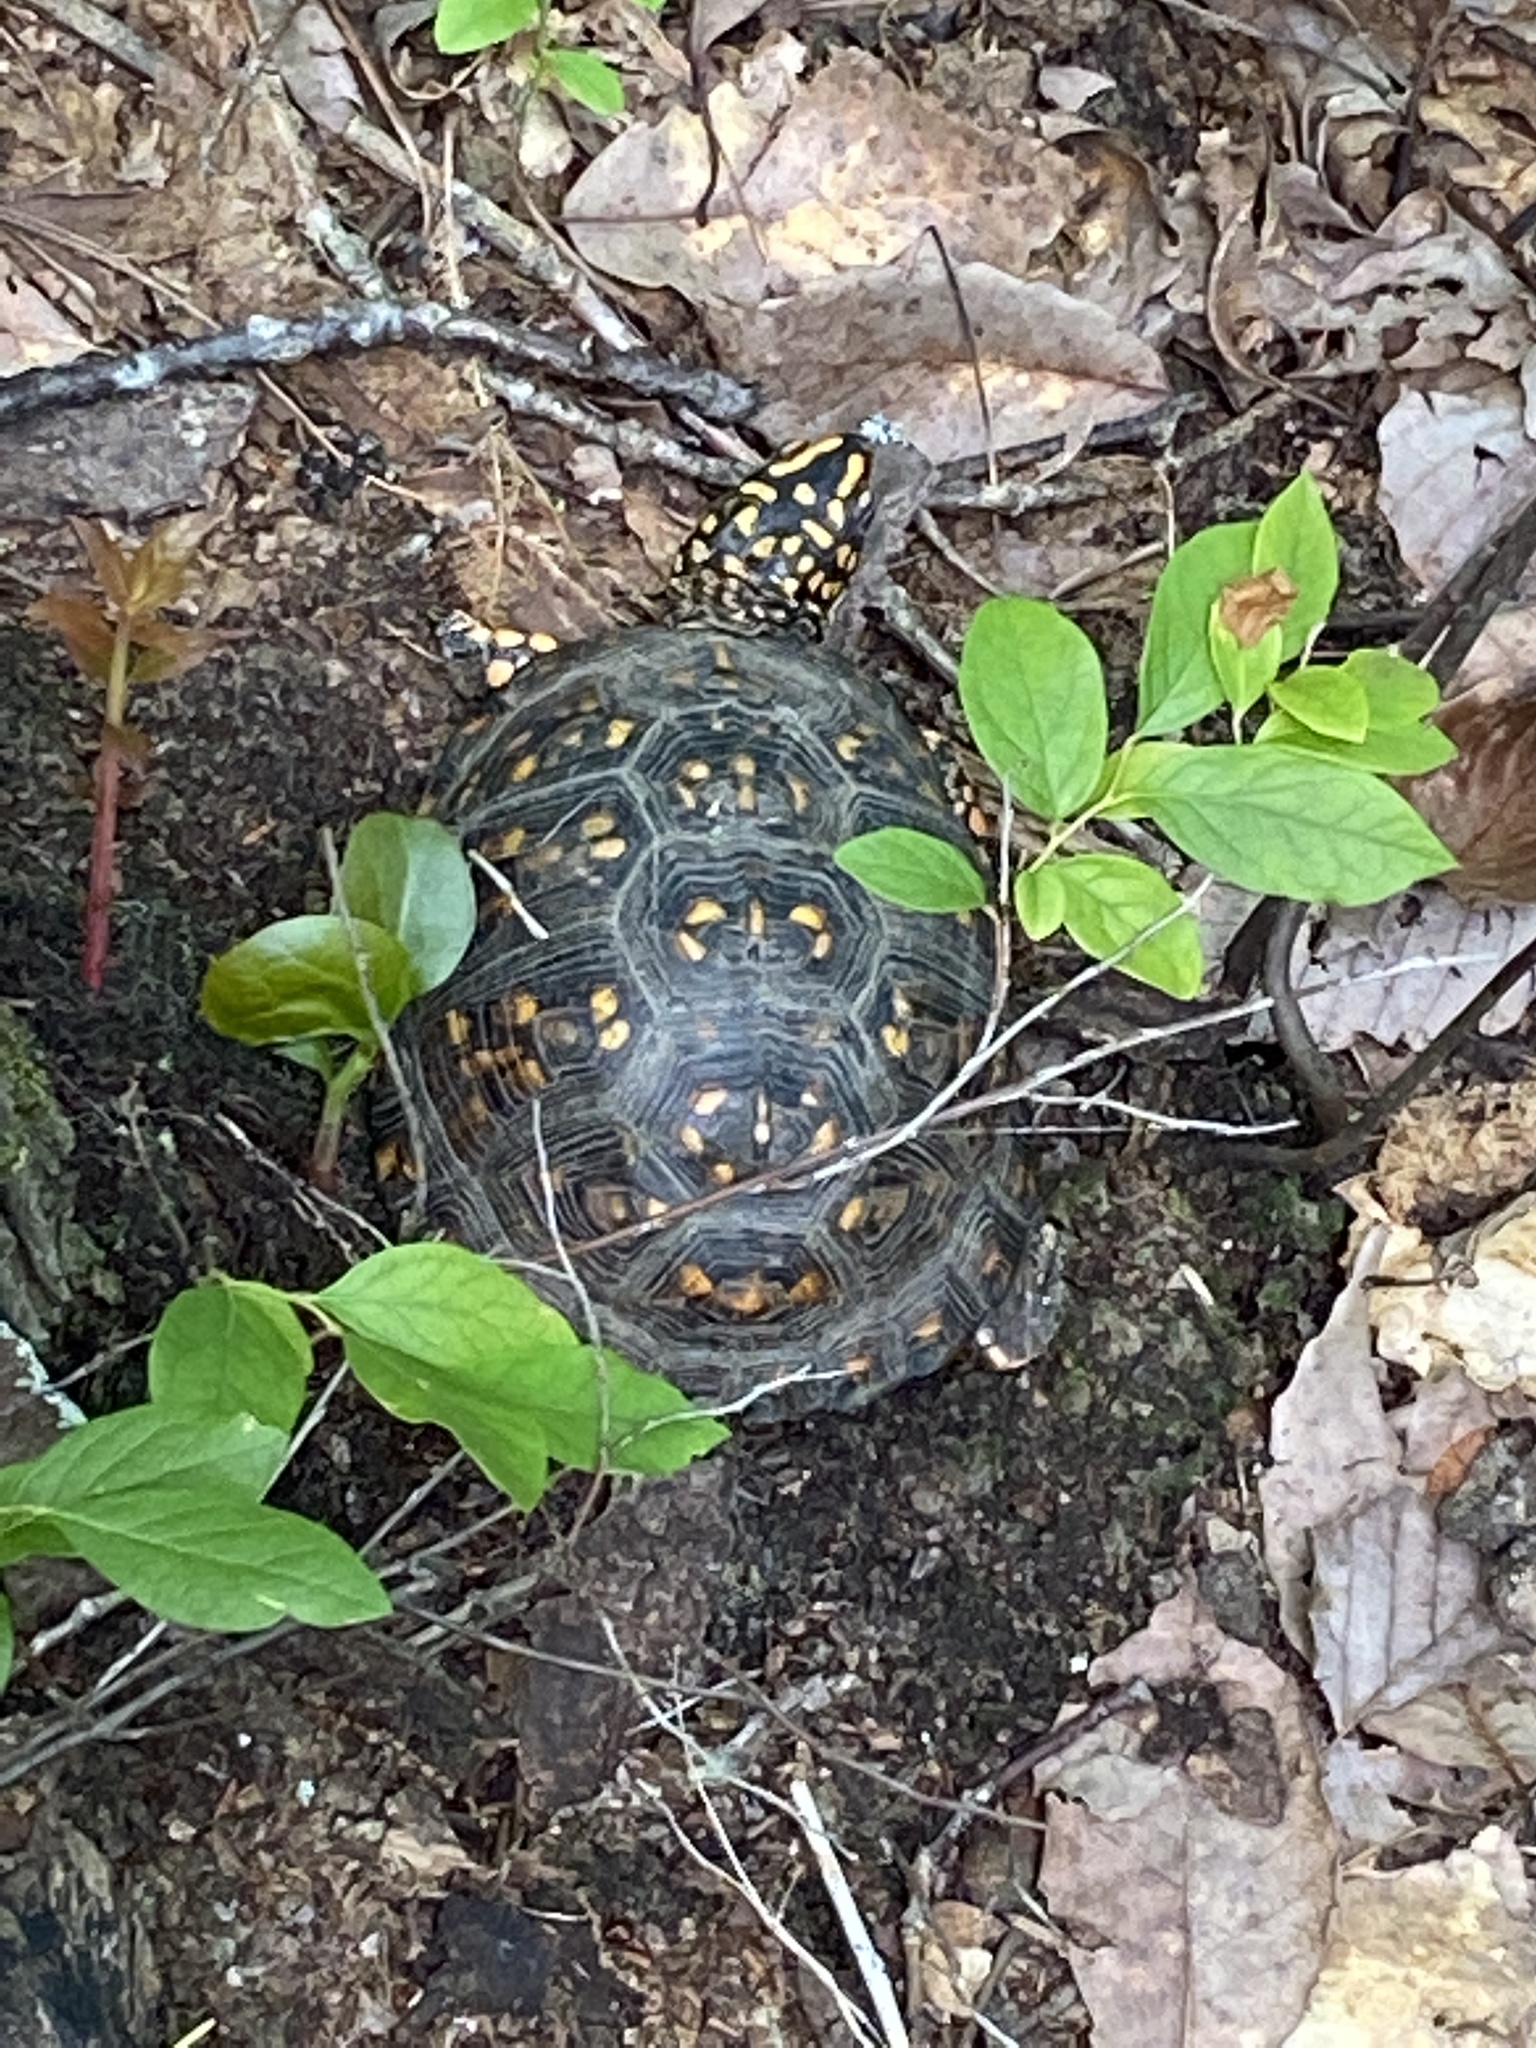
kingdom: Animalia
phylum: Chordata
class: Testudines
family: Emydidae
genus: Terrapene
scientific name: Terrapene carolina
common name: Common box turtle
